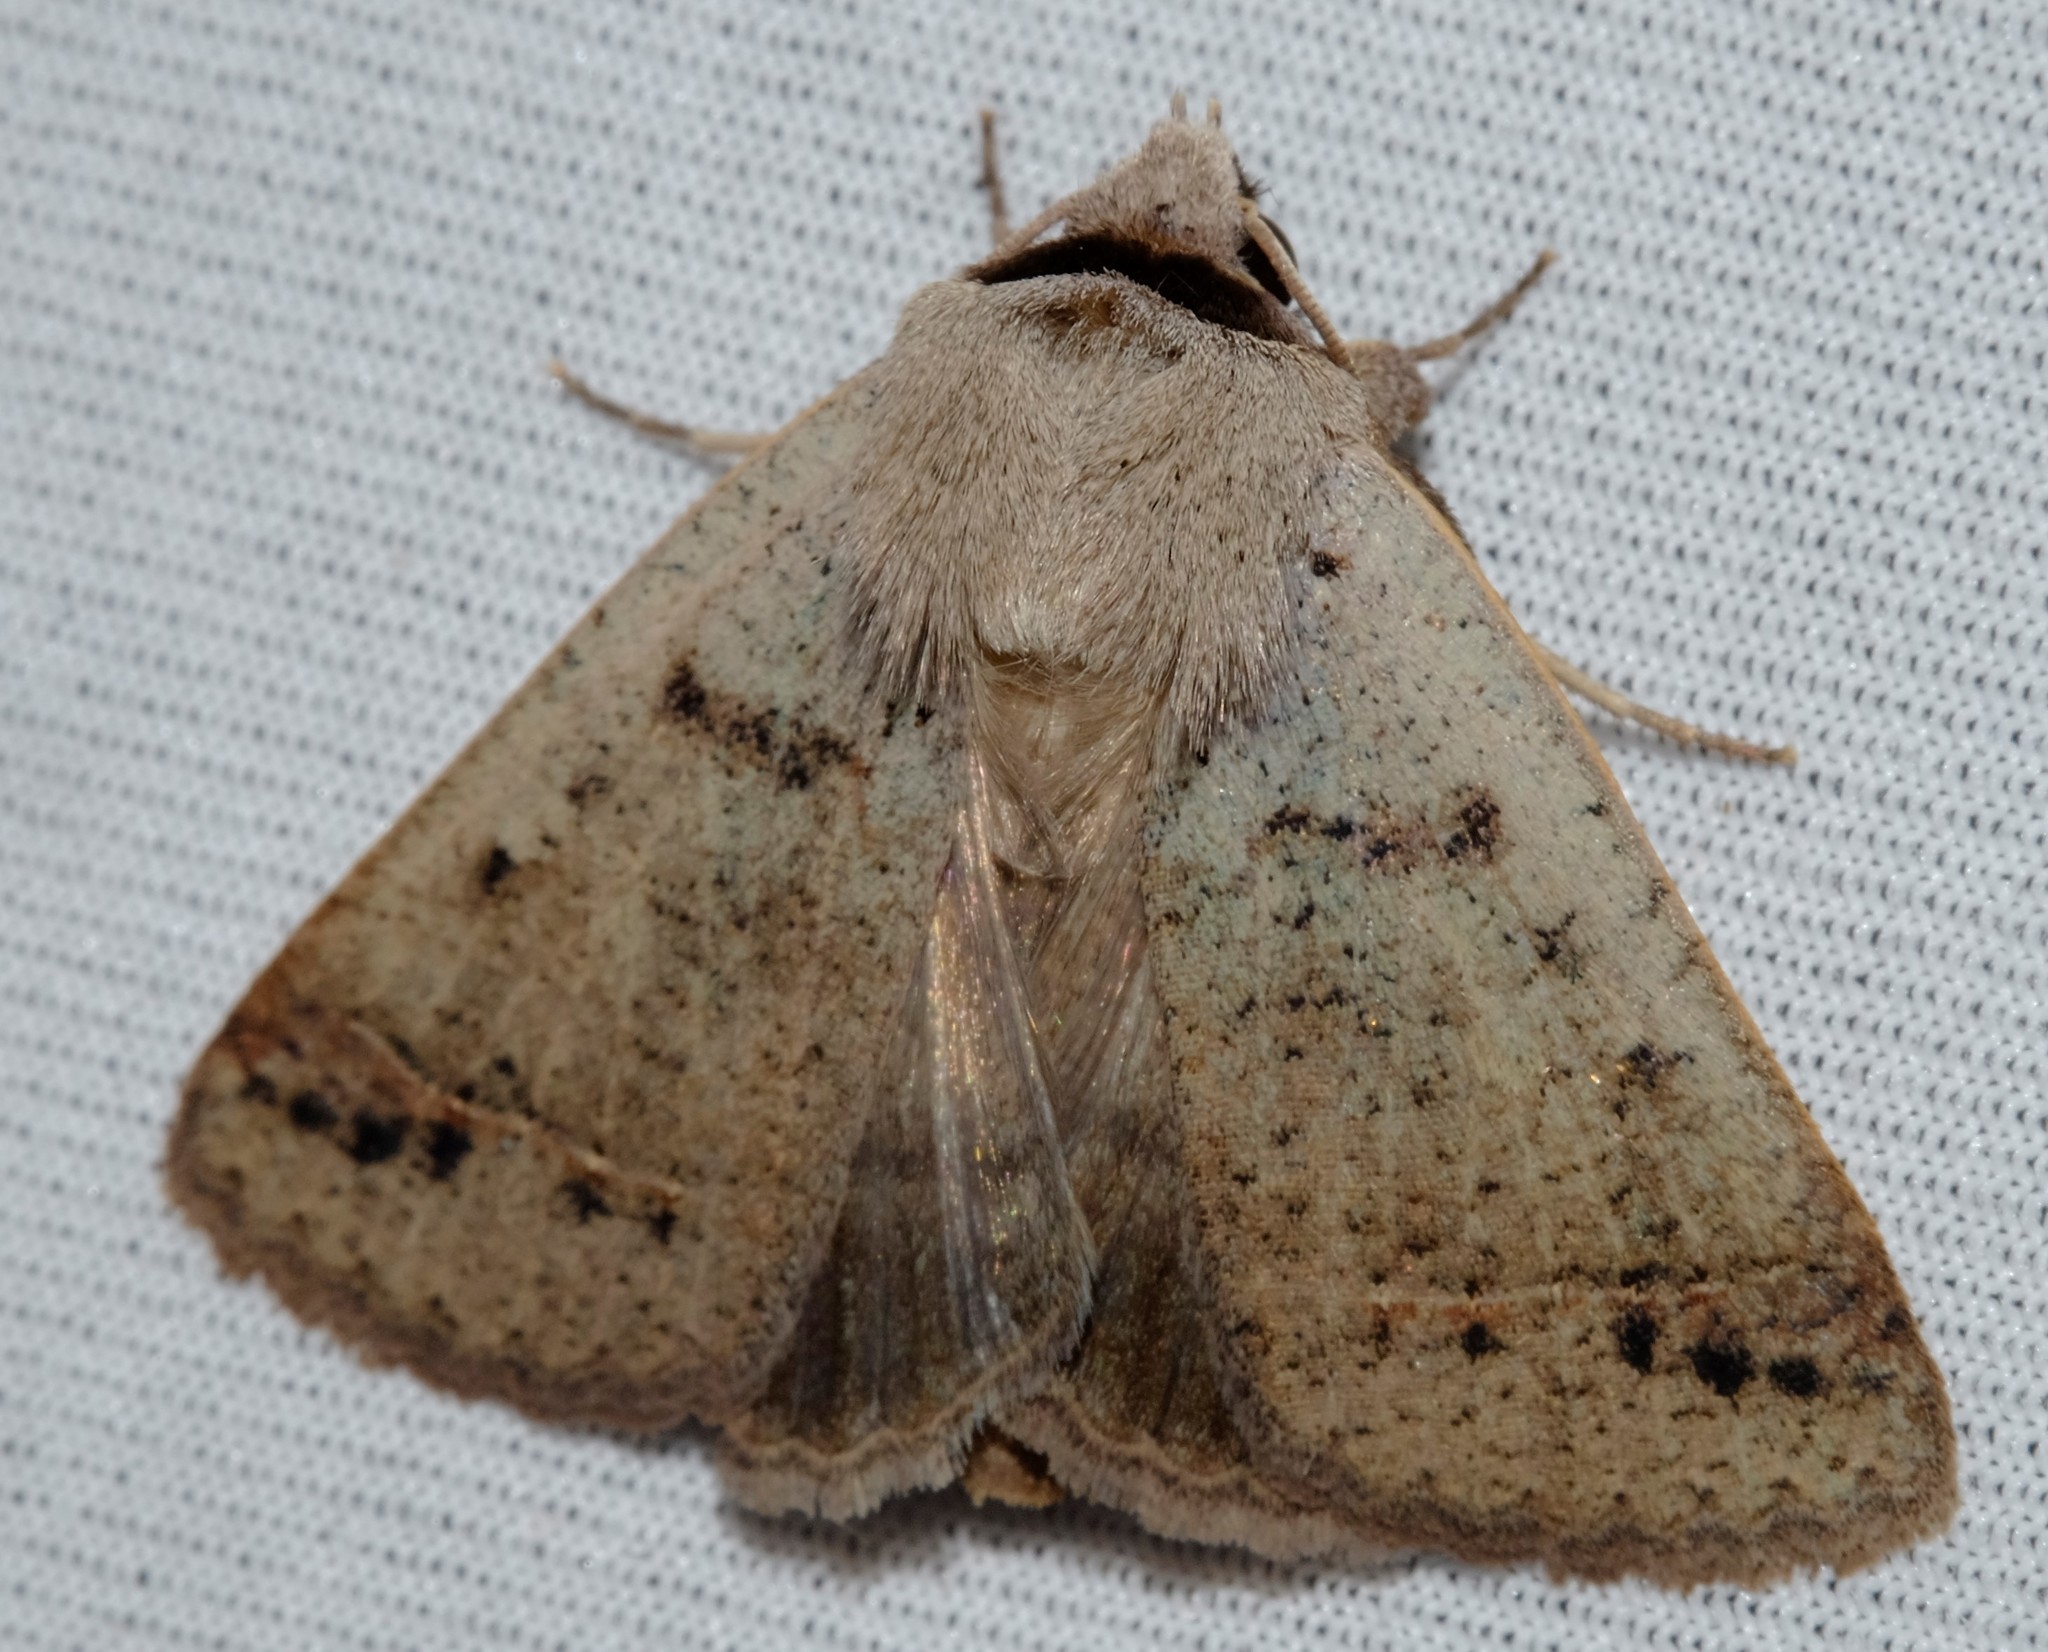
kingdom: Animalia
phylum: Arthropoda
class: Insecta
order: Lepidoptera
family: Erebidae
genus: Pantydia
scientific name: Pantydia sparsa
